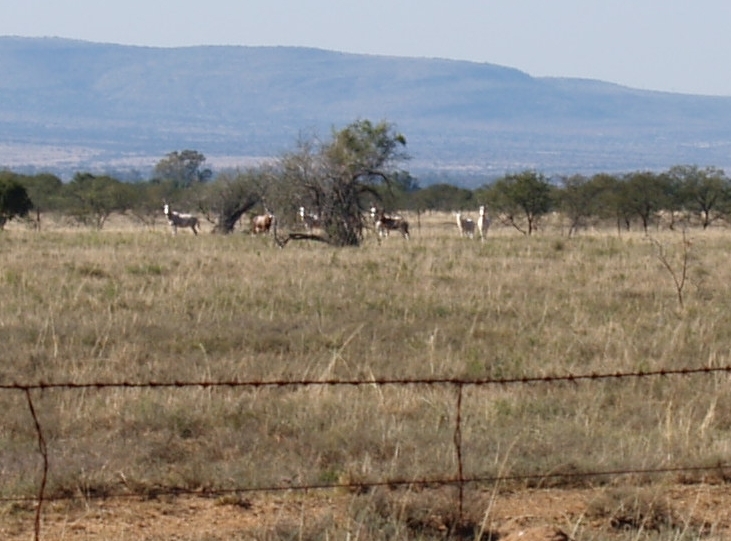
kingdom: Animalia
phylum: Chordata
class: Mammalia
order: Artiodactyla
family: Bovidae
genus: Damaliscus
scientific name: Damaliscus pygargus
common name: Bontebok
